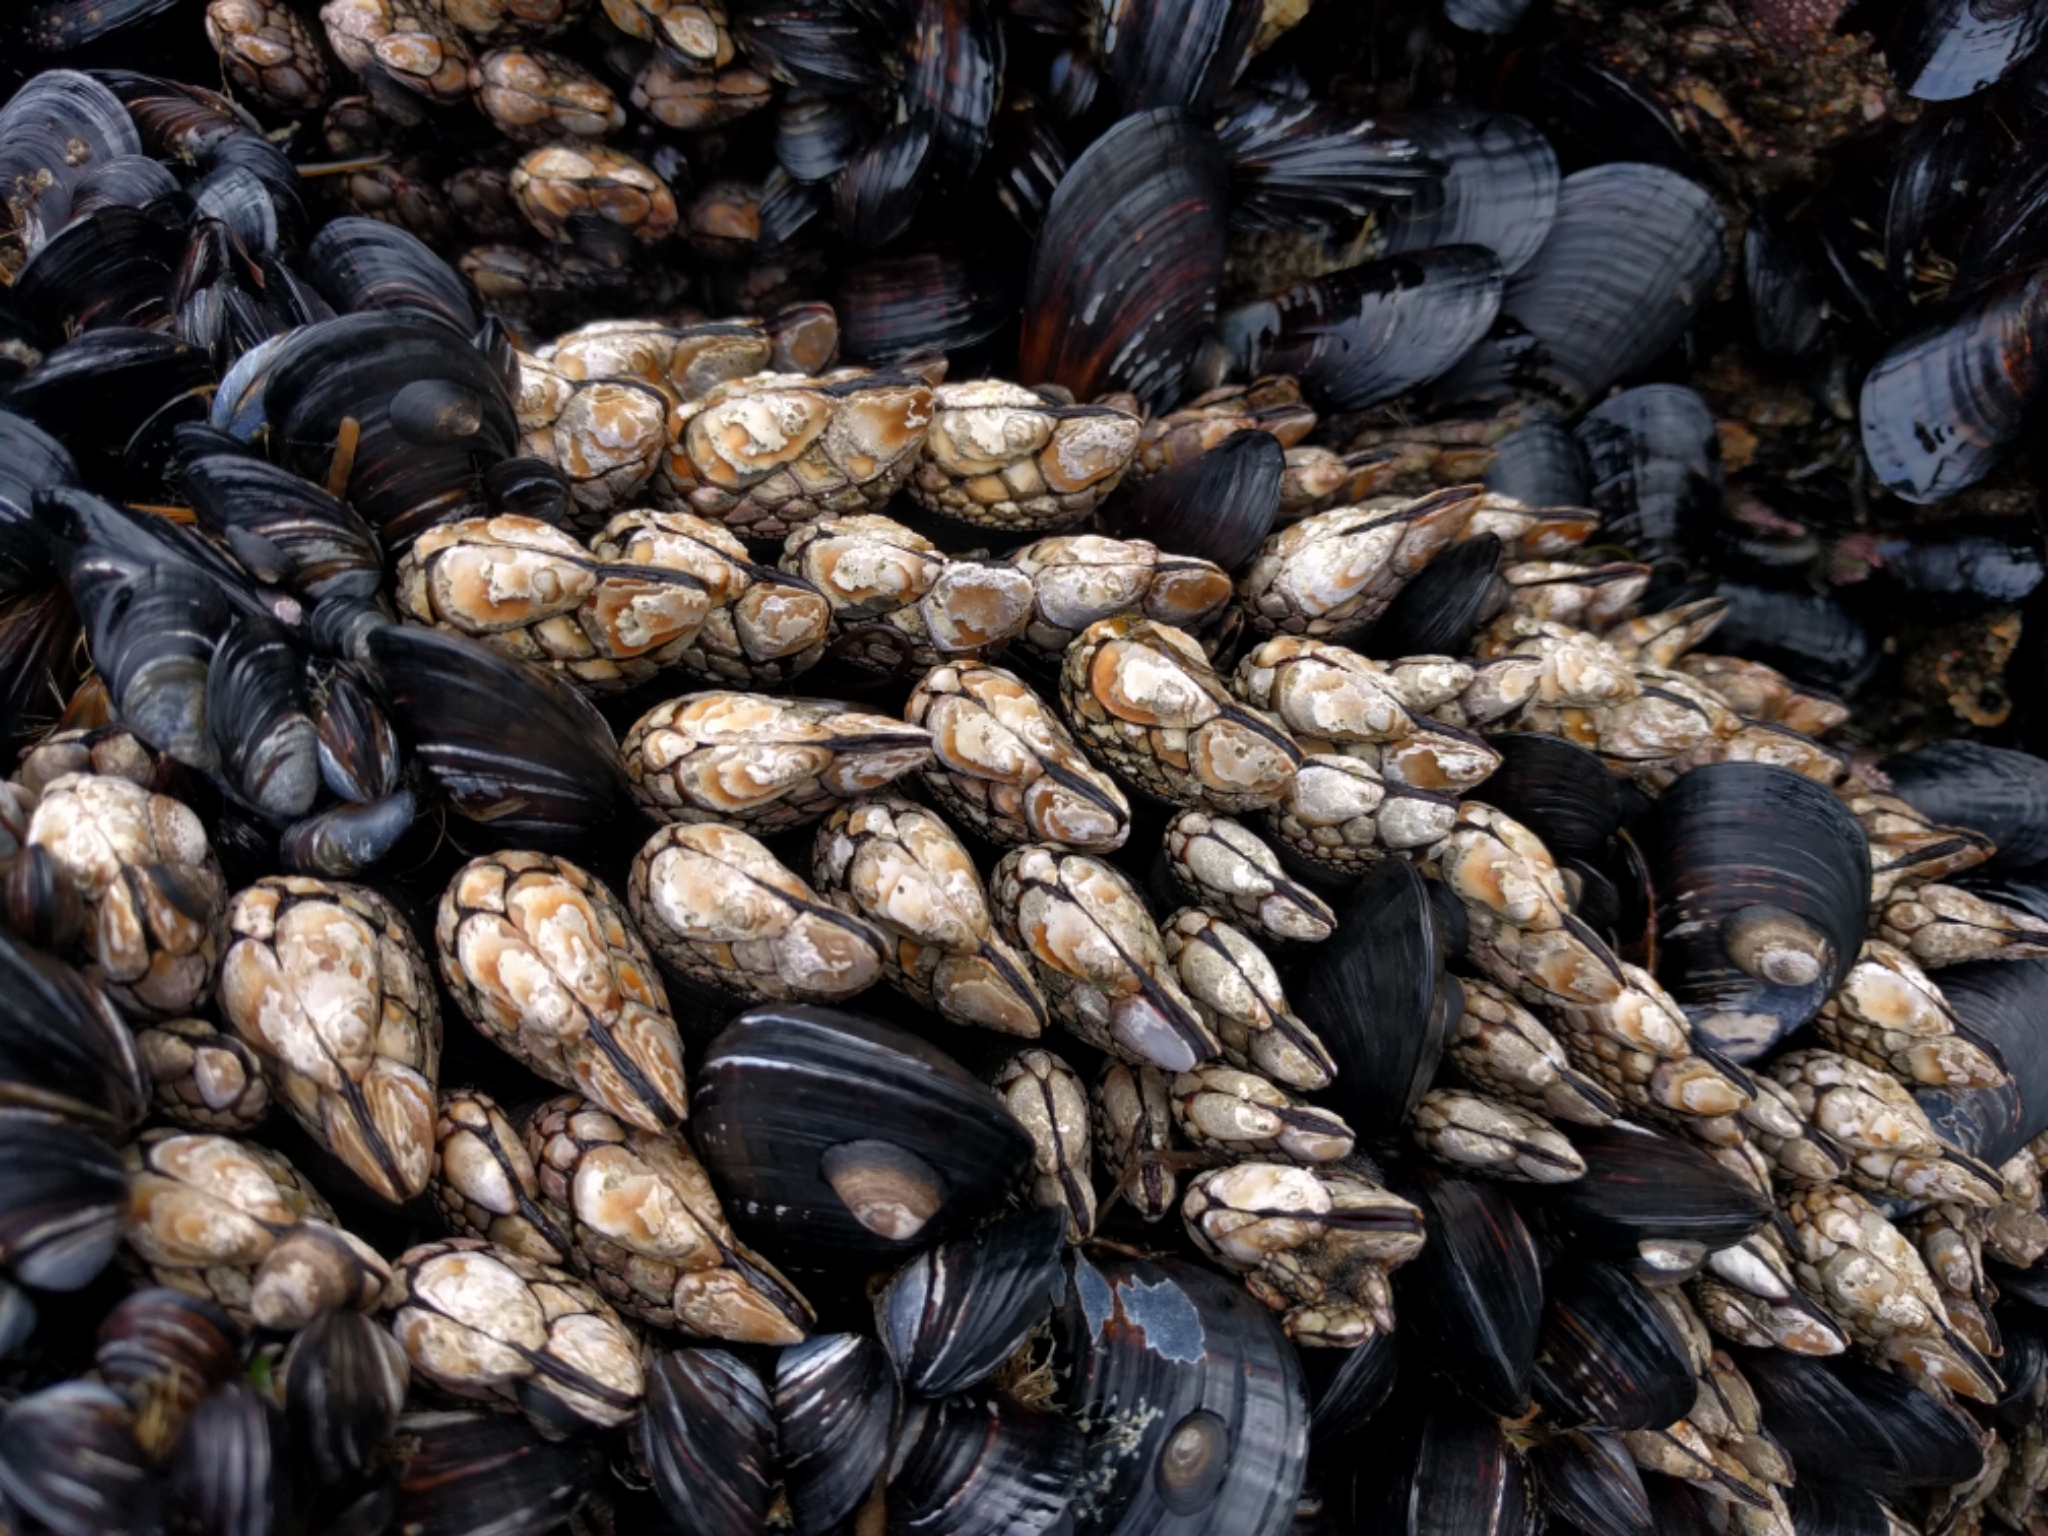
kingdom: Animalia
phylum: Arthropoda
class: Maxillopoda
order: Pedunculata
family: Pollicipedidae
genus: Pollicipes
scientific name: Pollicipes polymerus
